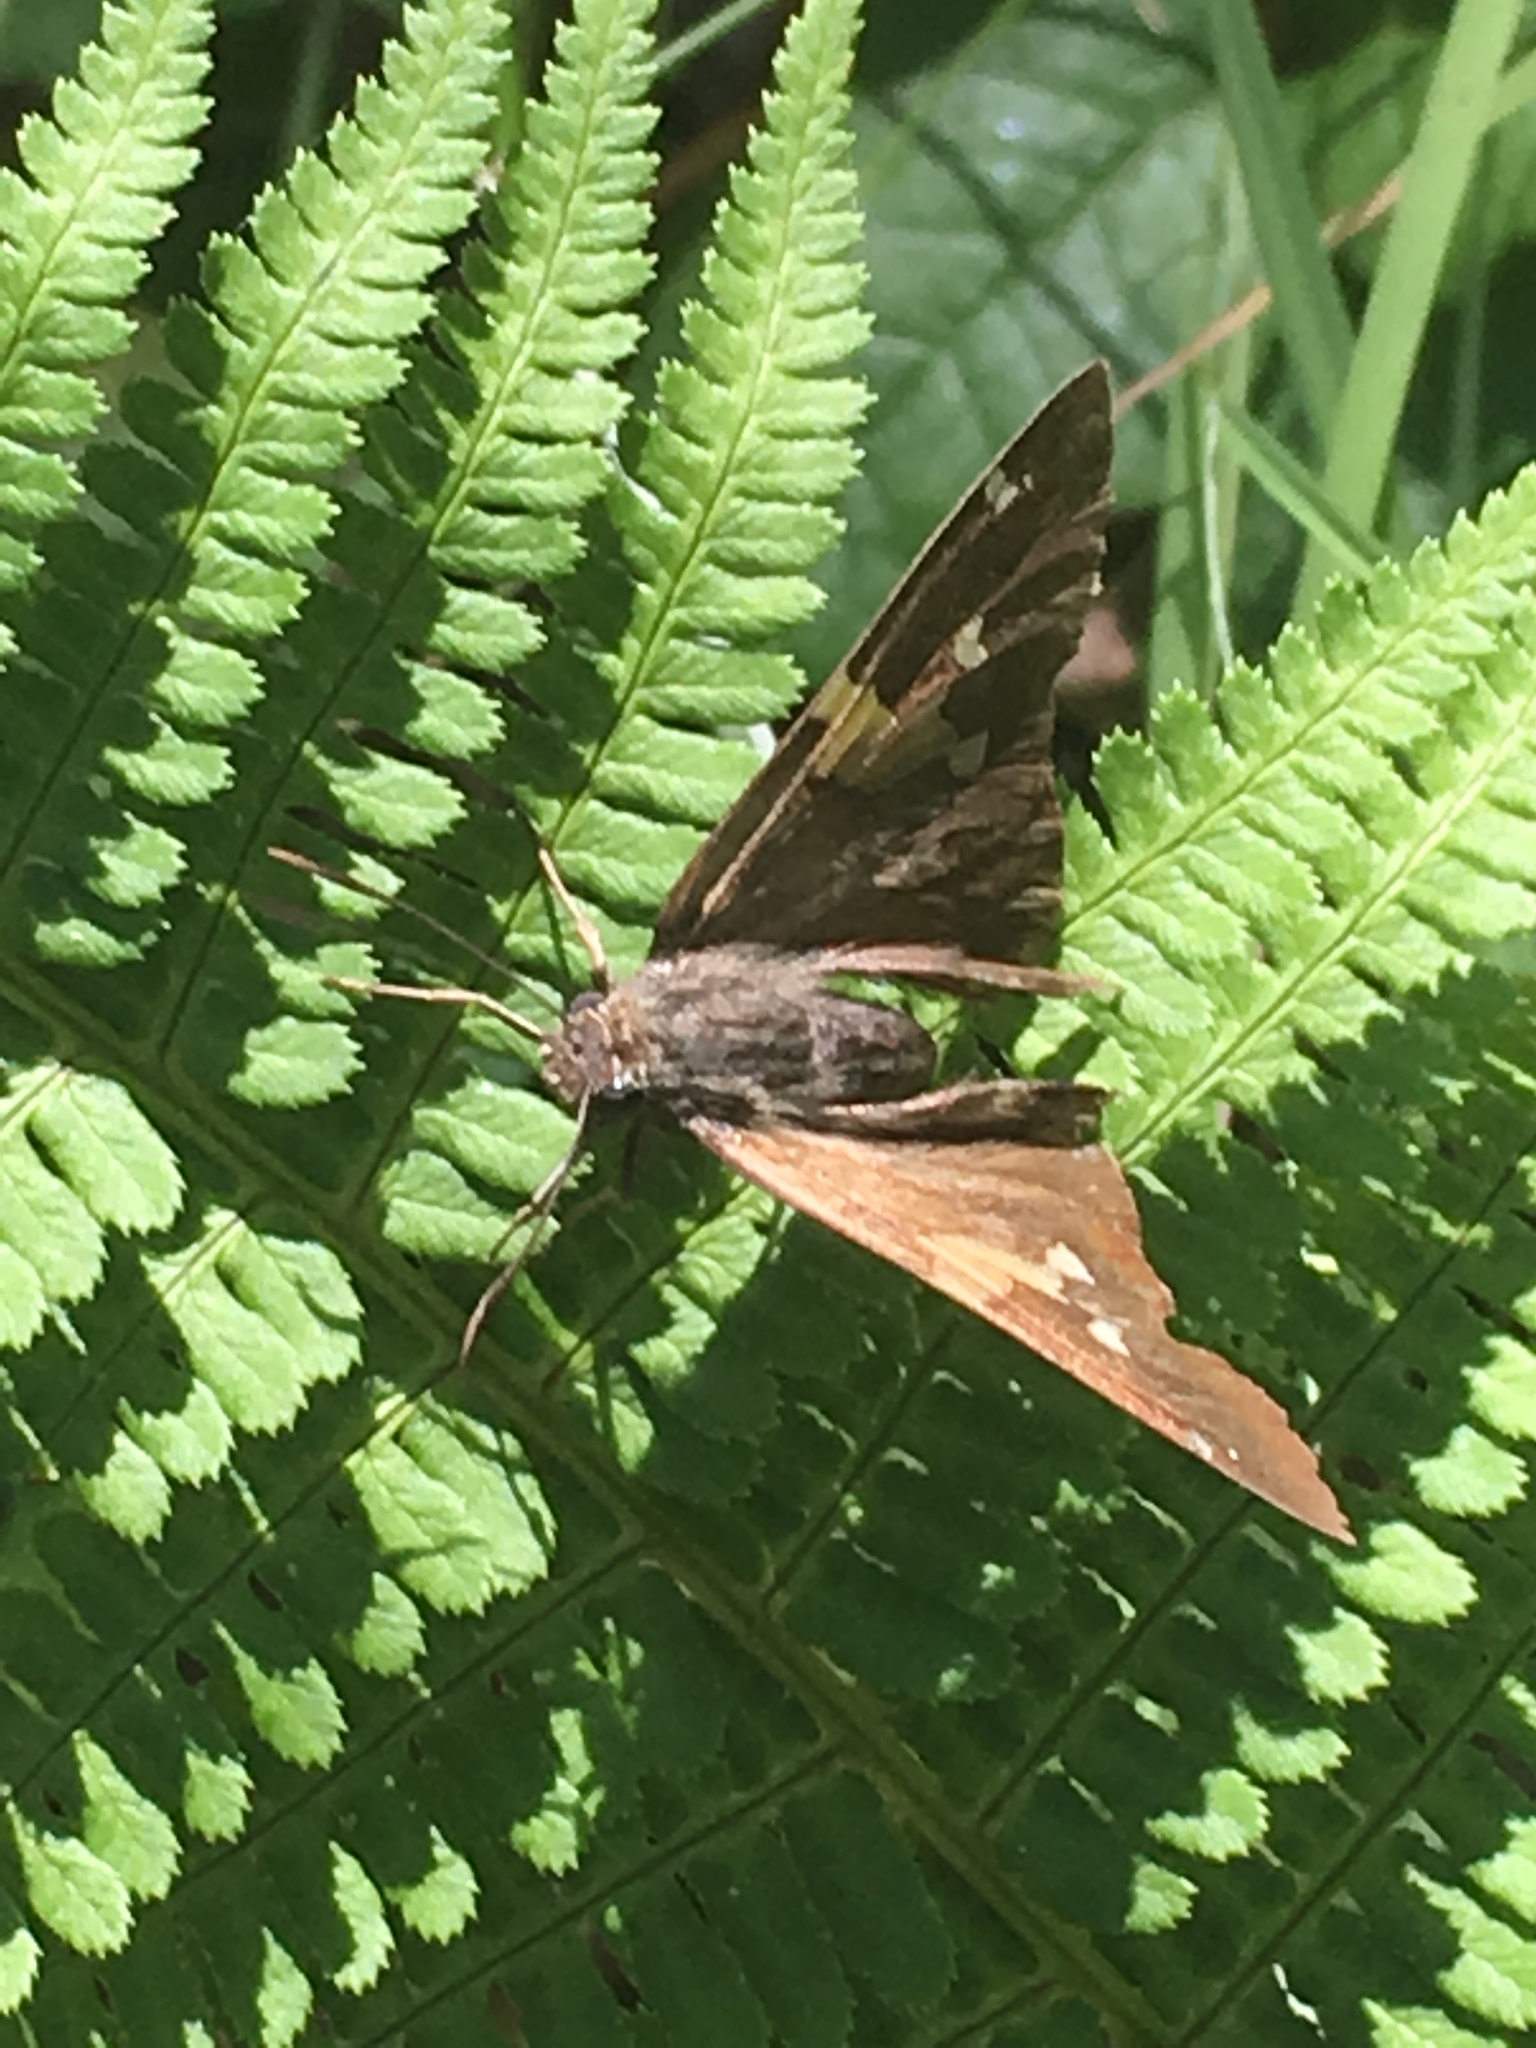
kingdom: Animalia
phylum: Arthropoda
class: Insecta
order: Lepidoptera
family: Hesperiidae
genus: Epargyreus
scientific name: Epargyreus clarus
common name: Silver-spotted skipper
